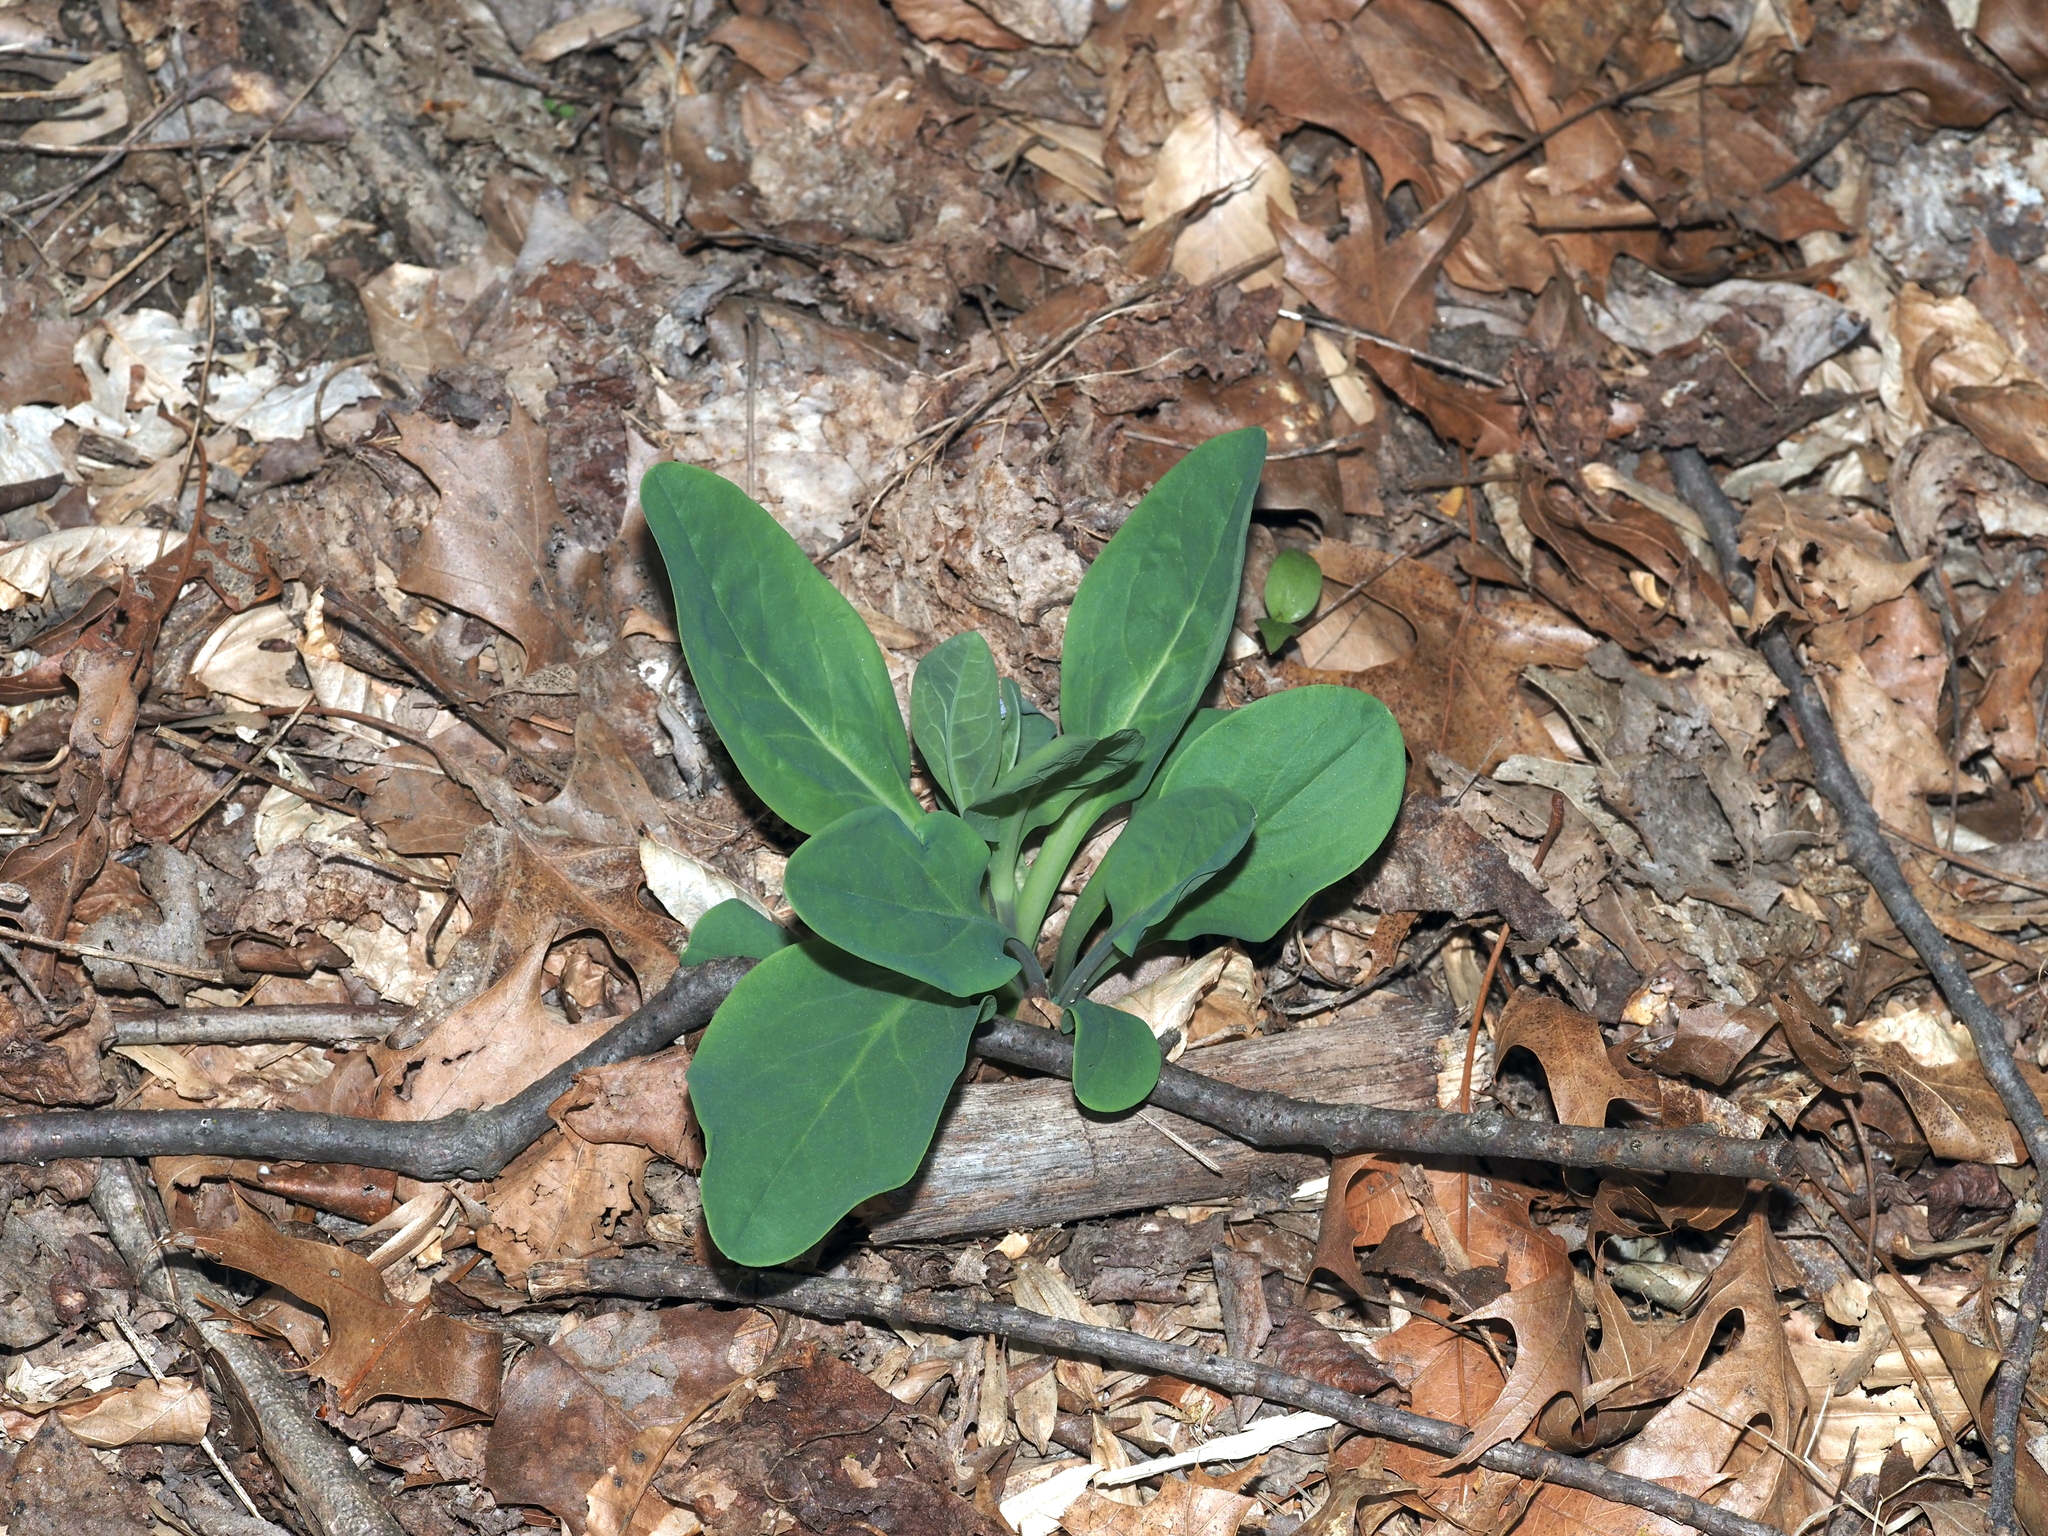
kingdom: Plantae
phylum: Tracheophyta
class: Magnoliopsida
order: Boraginales
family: Boraginaceae
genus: Mertensia
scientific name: Mertensia virginica
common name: Virginia bluebells
